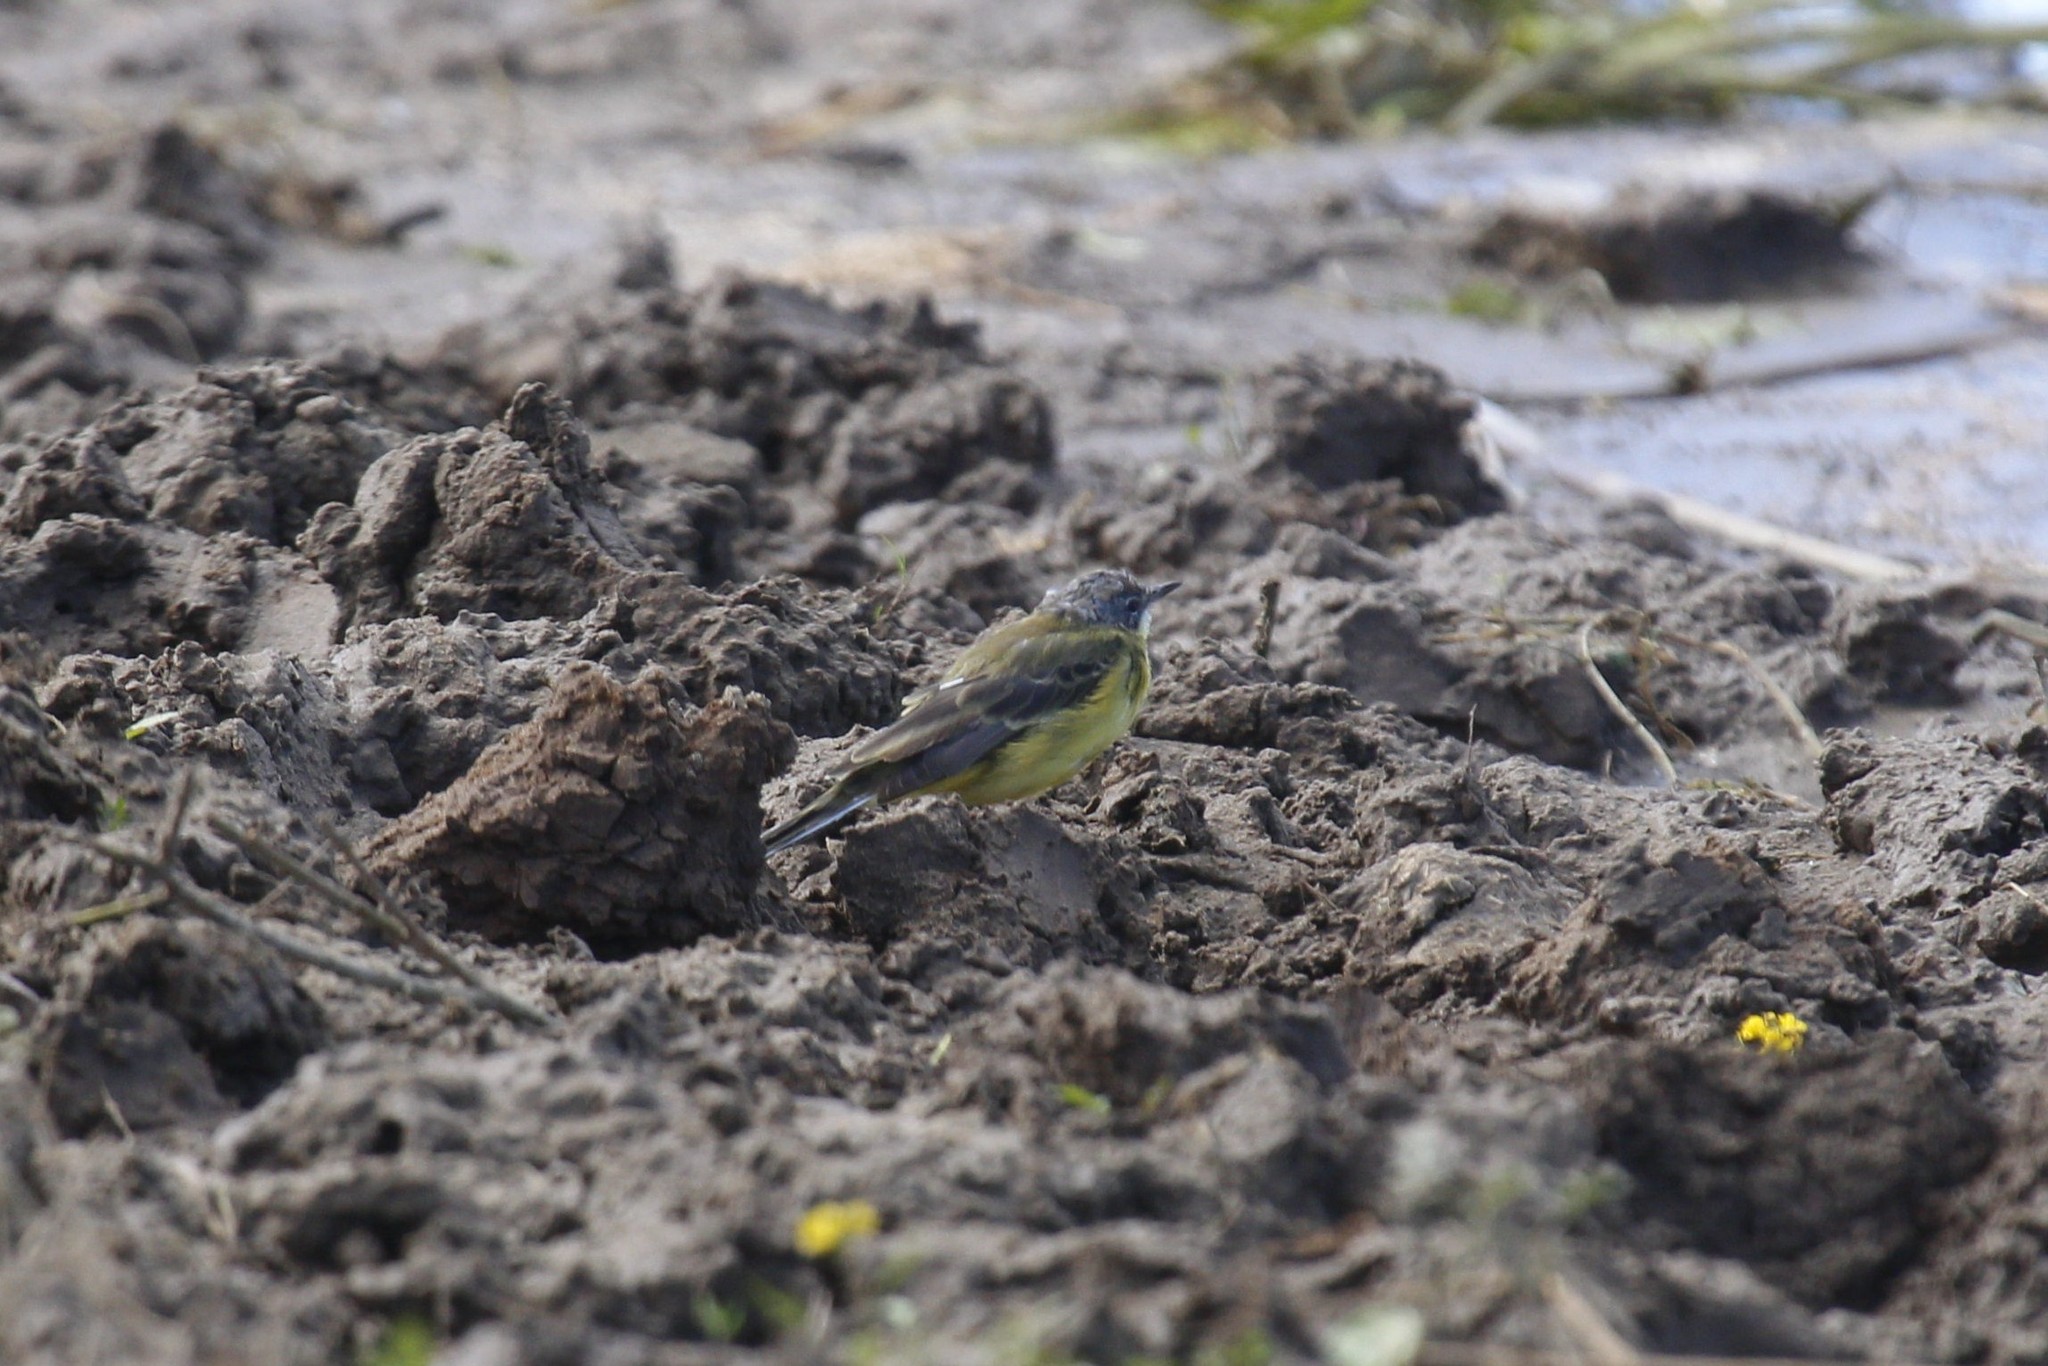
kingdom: Animalia
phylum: Chordata
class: Aves
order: Passeriformes
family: Motacillidae
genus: Motacilla
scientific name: Motacilla flava
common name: Western yellow wagtail
